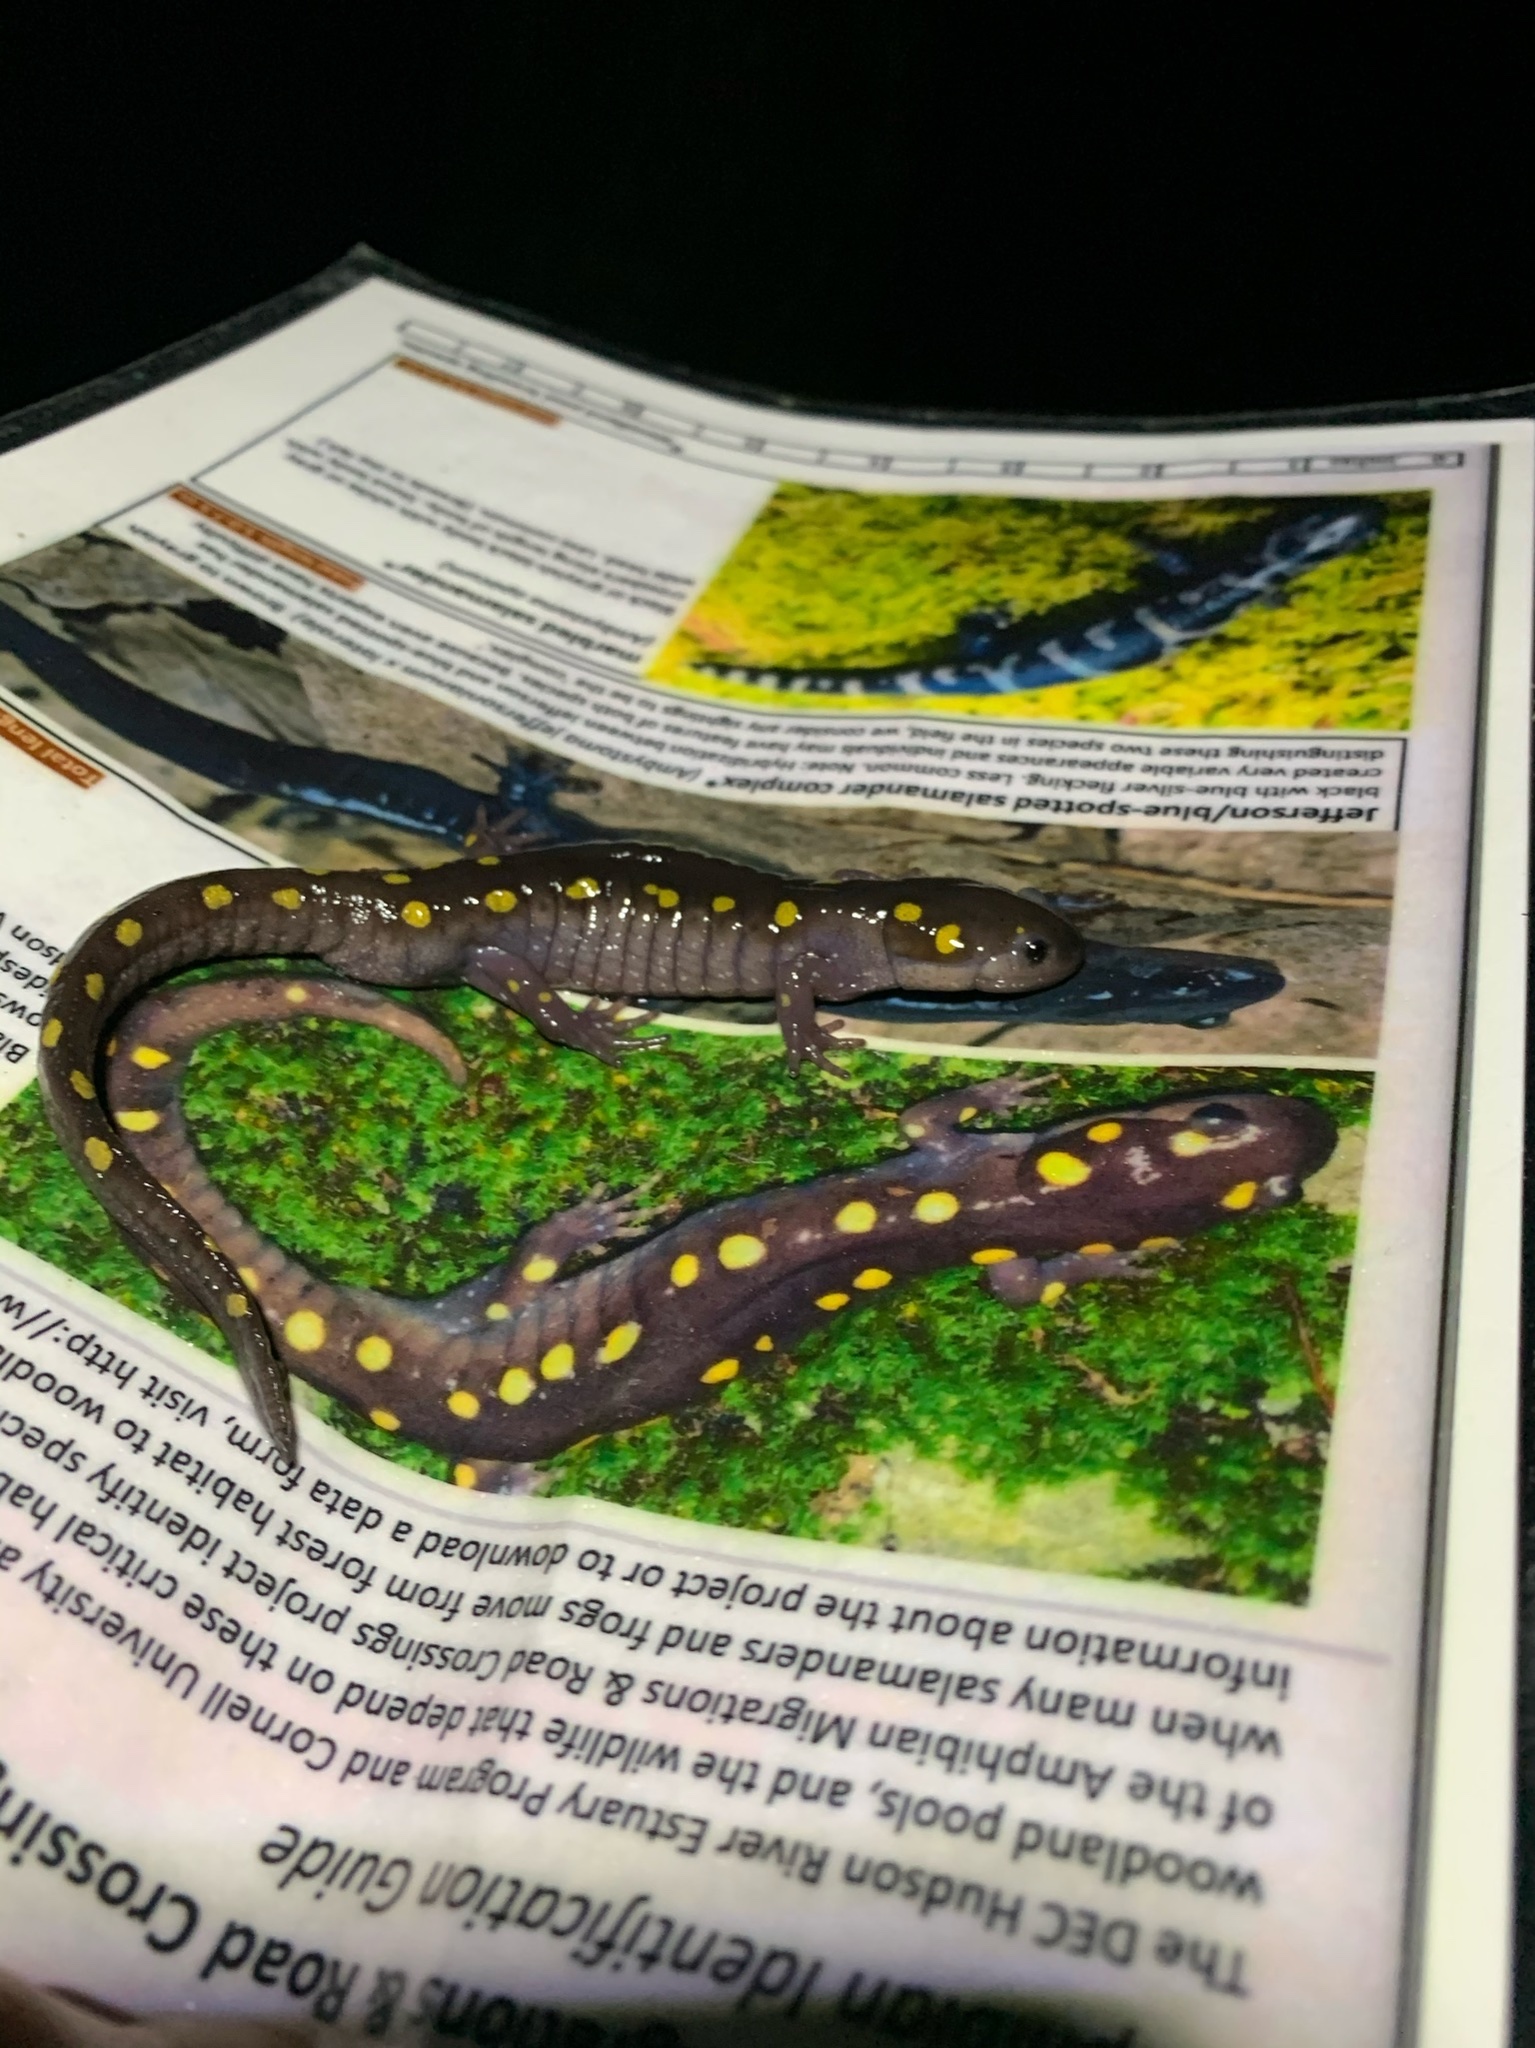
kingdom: Animalia
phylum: Chordata
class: Amphibia
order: Caudata
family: Ambystomatidae
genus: Ambystoma
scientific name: Ambystoma maculatum
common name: Spotted salamander
